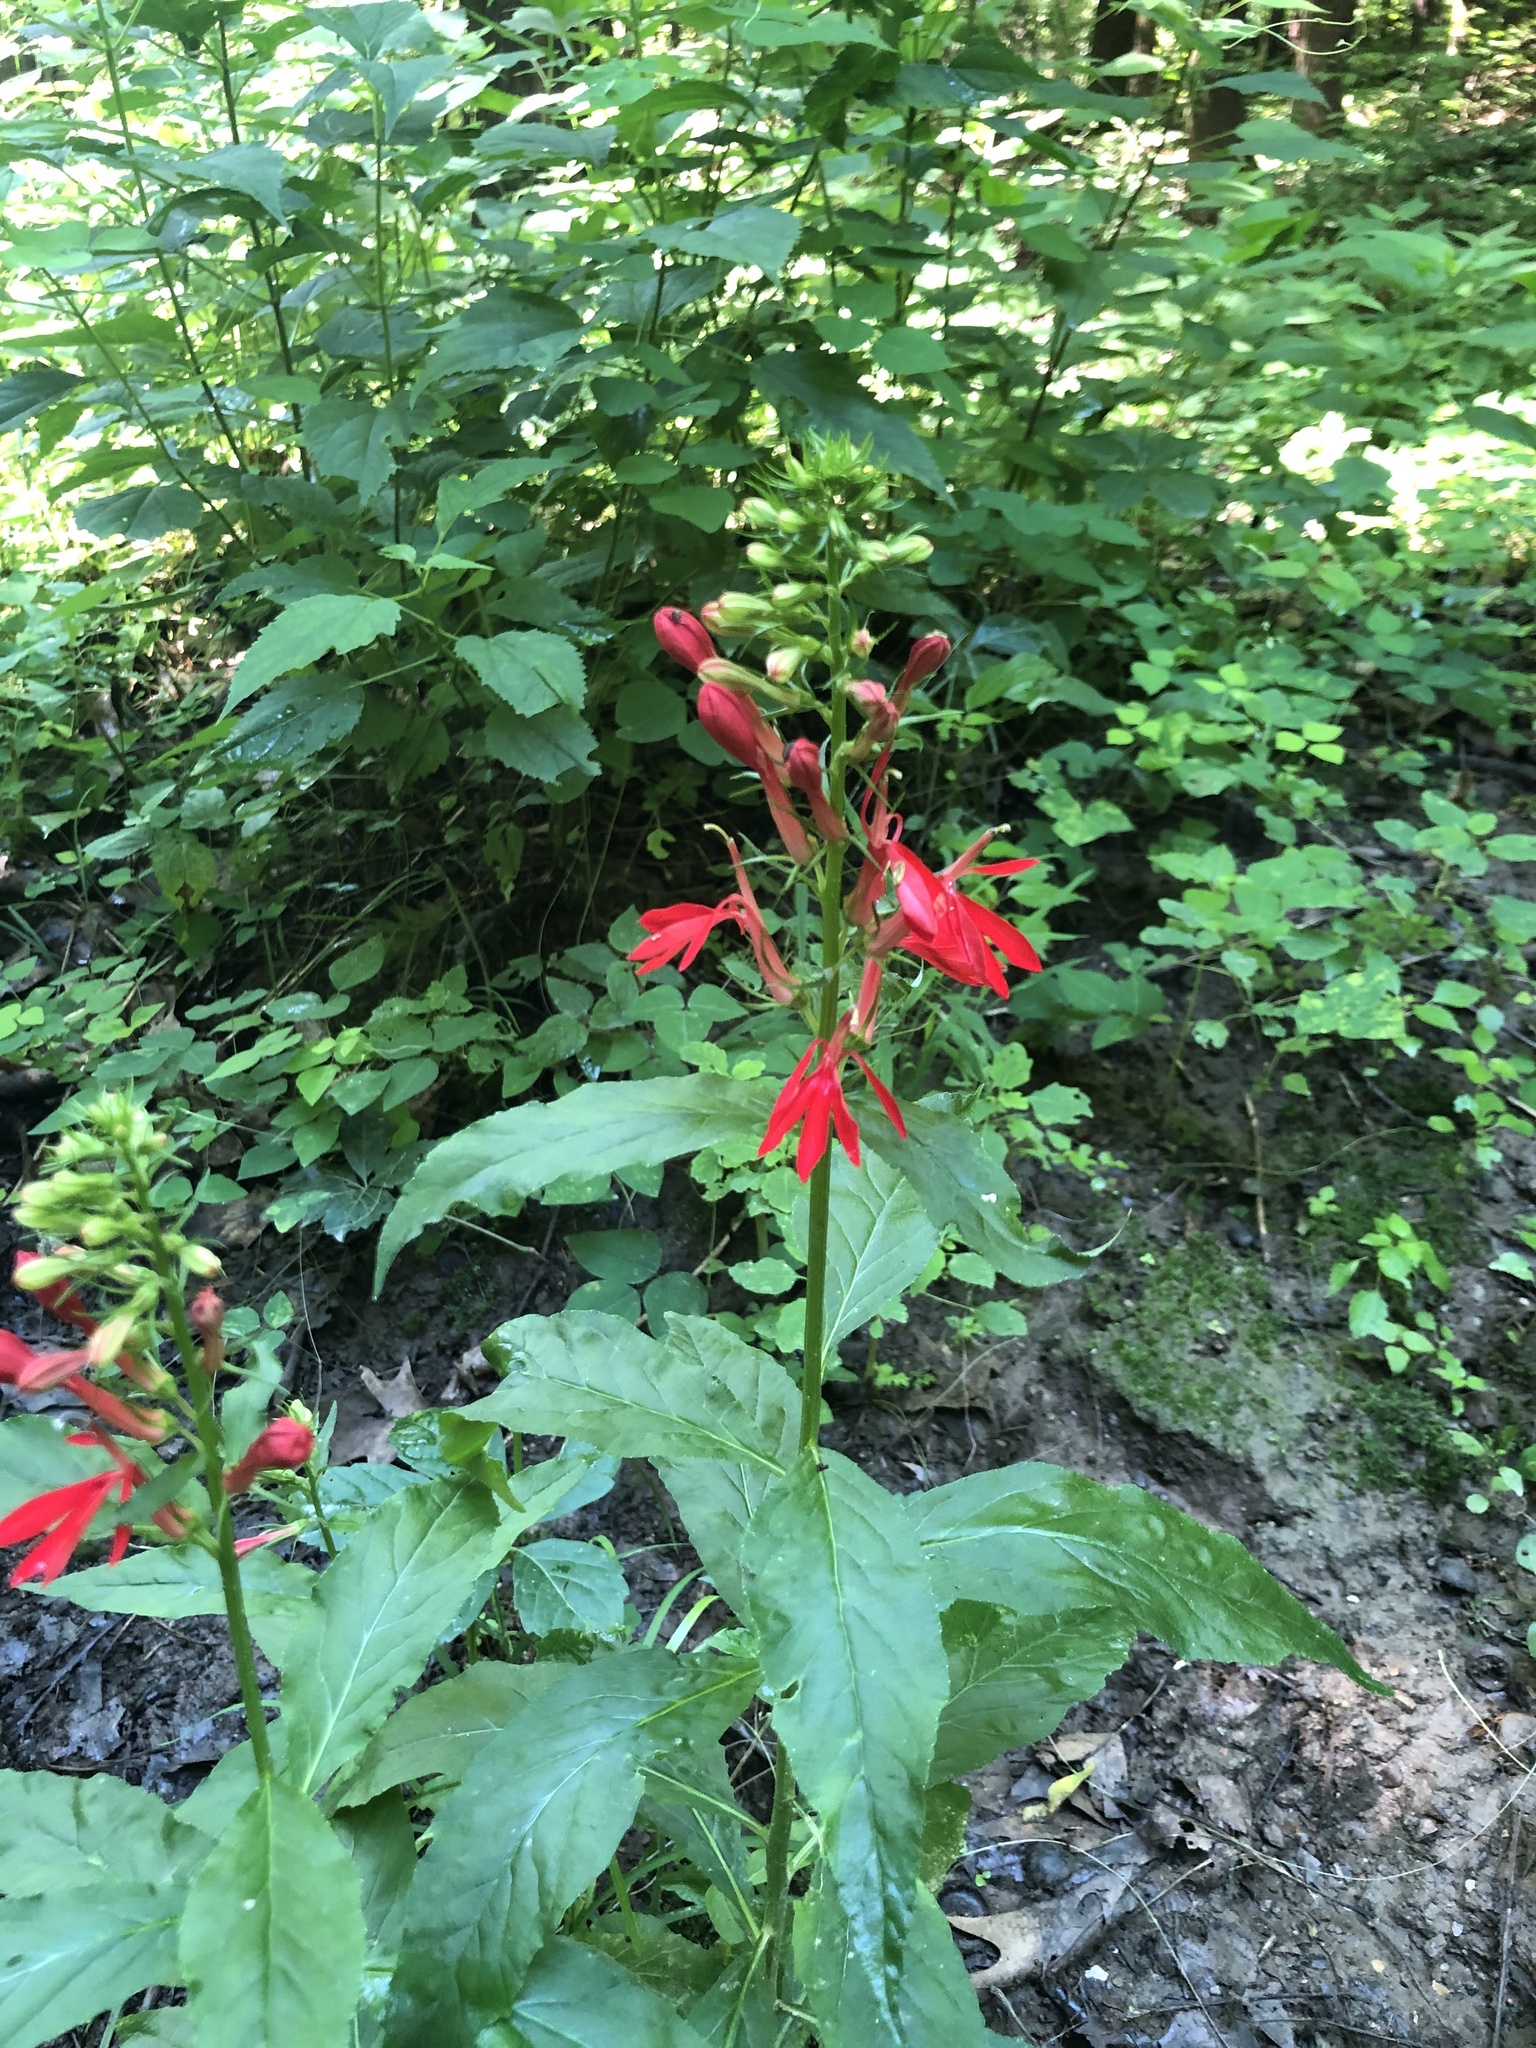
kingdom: Plantae
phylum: Tracheophyta
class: Magnoliopsida
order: Asterales
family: Campanulaceae
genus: Lobelia
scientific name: Lobelia cardinalis
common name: Cardinal flower
